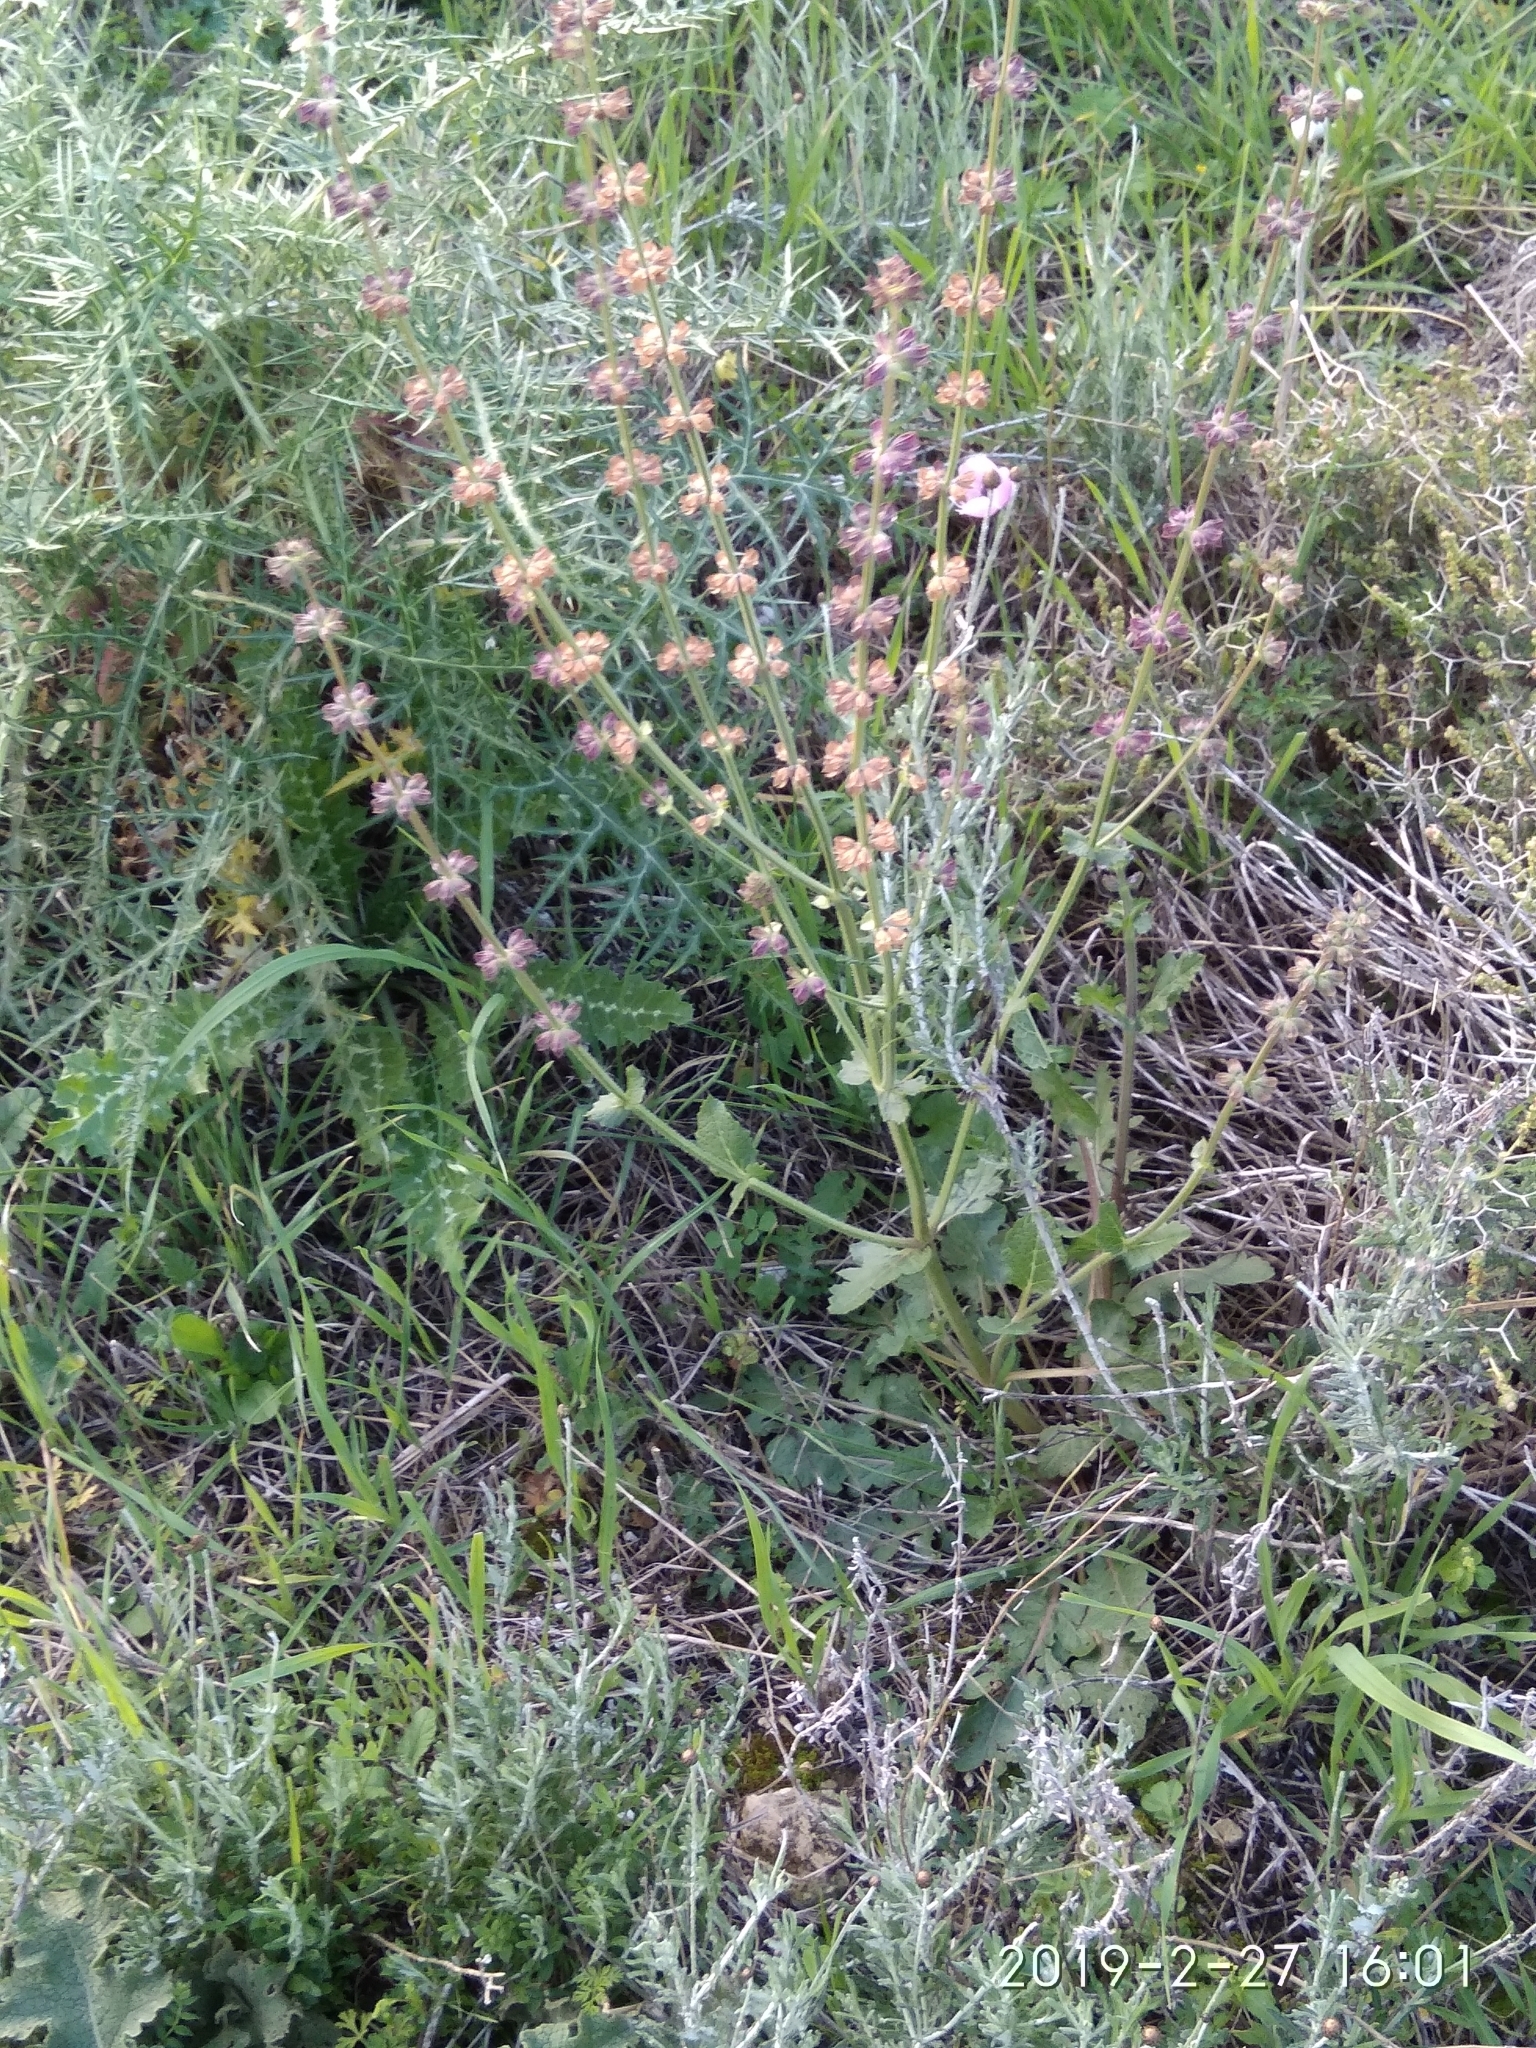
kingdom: Plantae
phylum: Tracheophyta
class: Magnoliopsida
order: Lamiales
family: Lamiaceae
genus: Salvia
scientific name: Salvia verbenaca
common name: Wild clary
